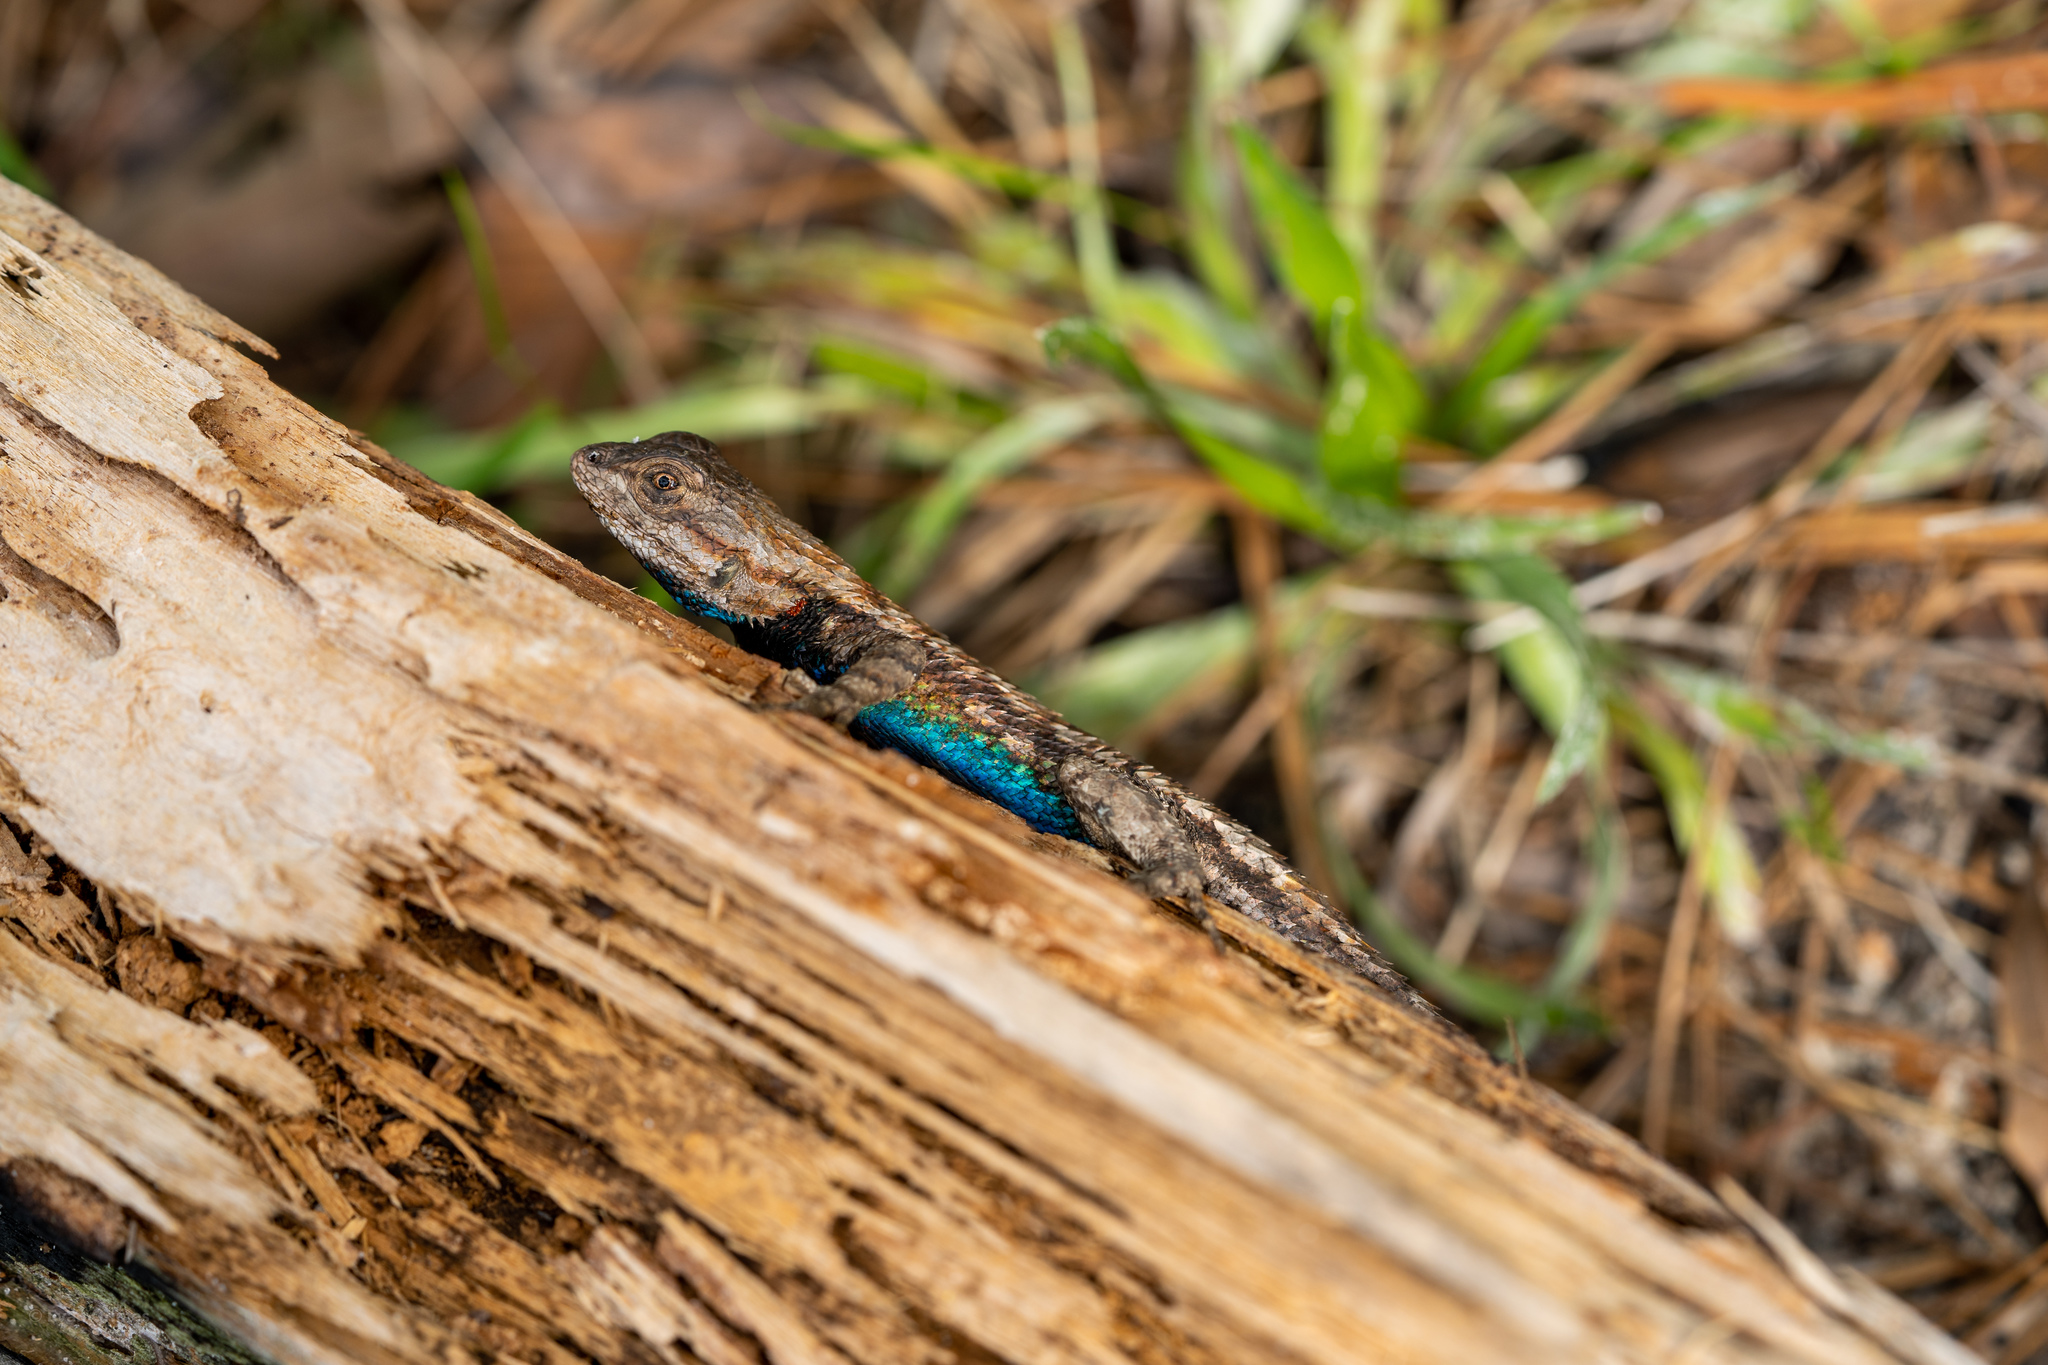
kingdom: Animalia
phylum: Chordata
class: Squamata
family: Phrynosomatidae
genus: Sceloporus
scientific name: Sceloporus undulatus
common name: Eastern fence lizard
